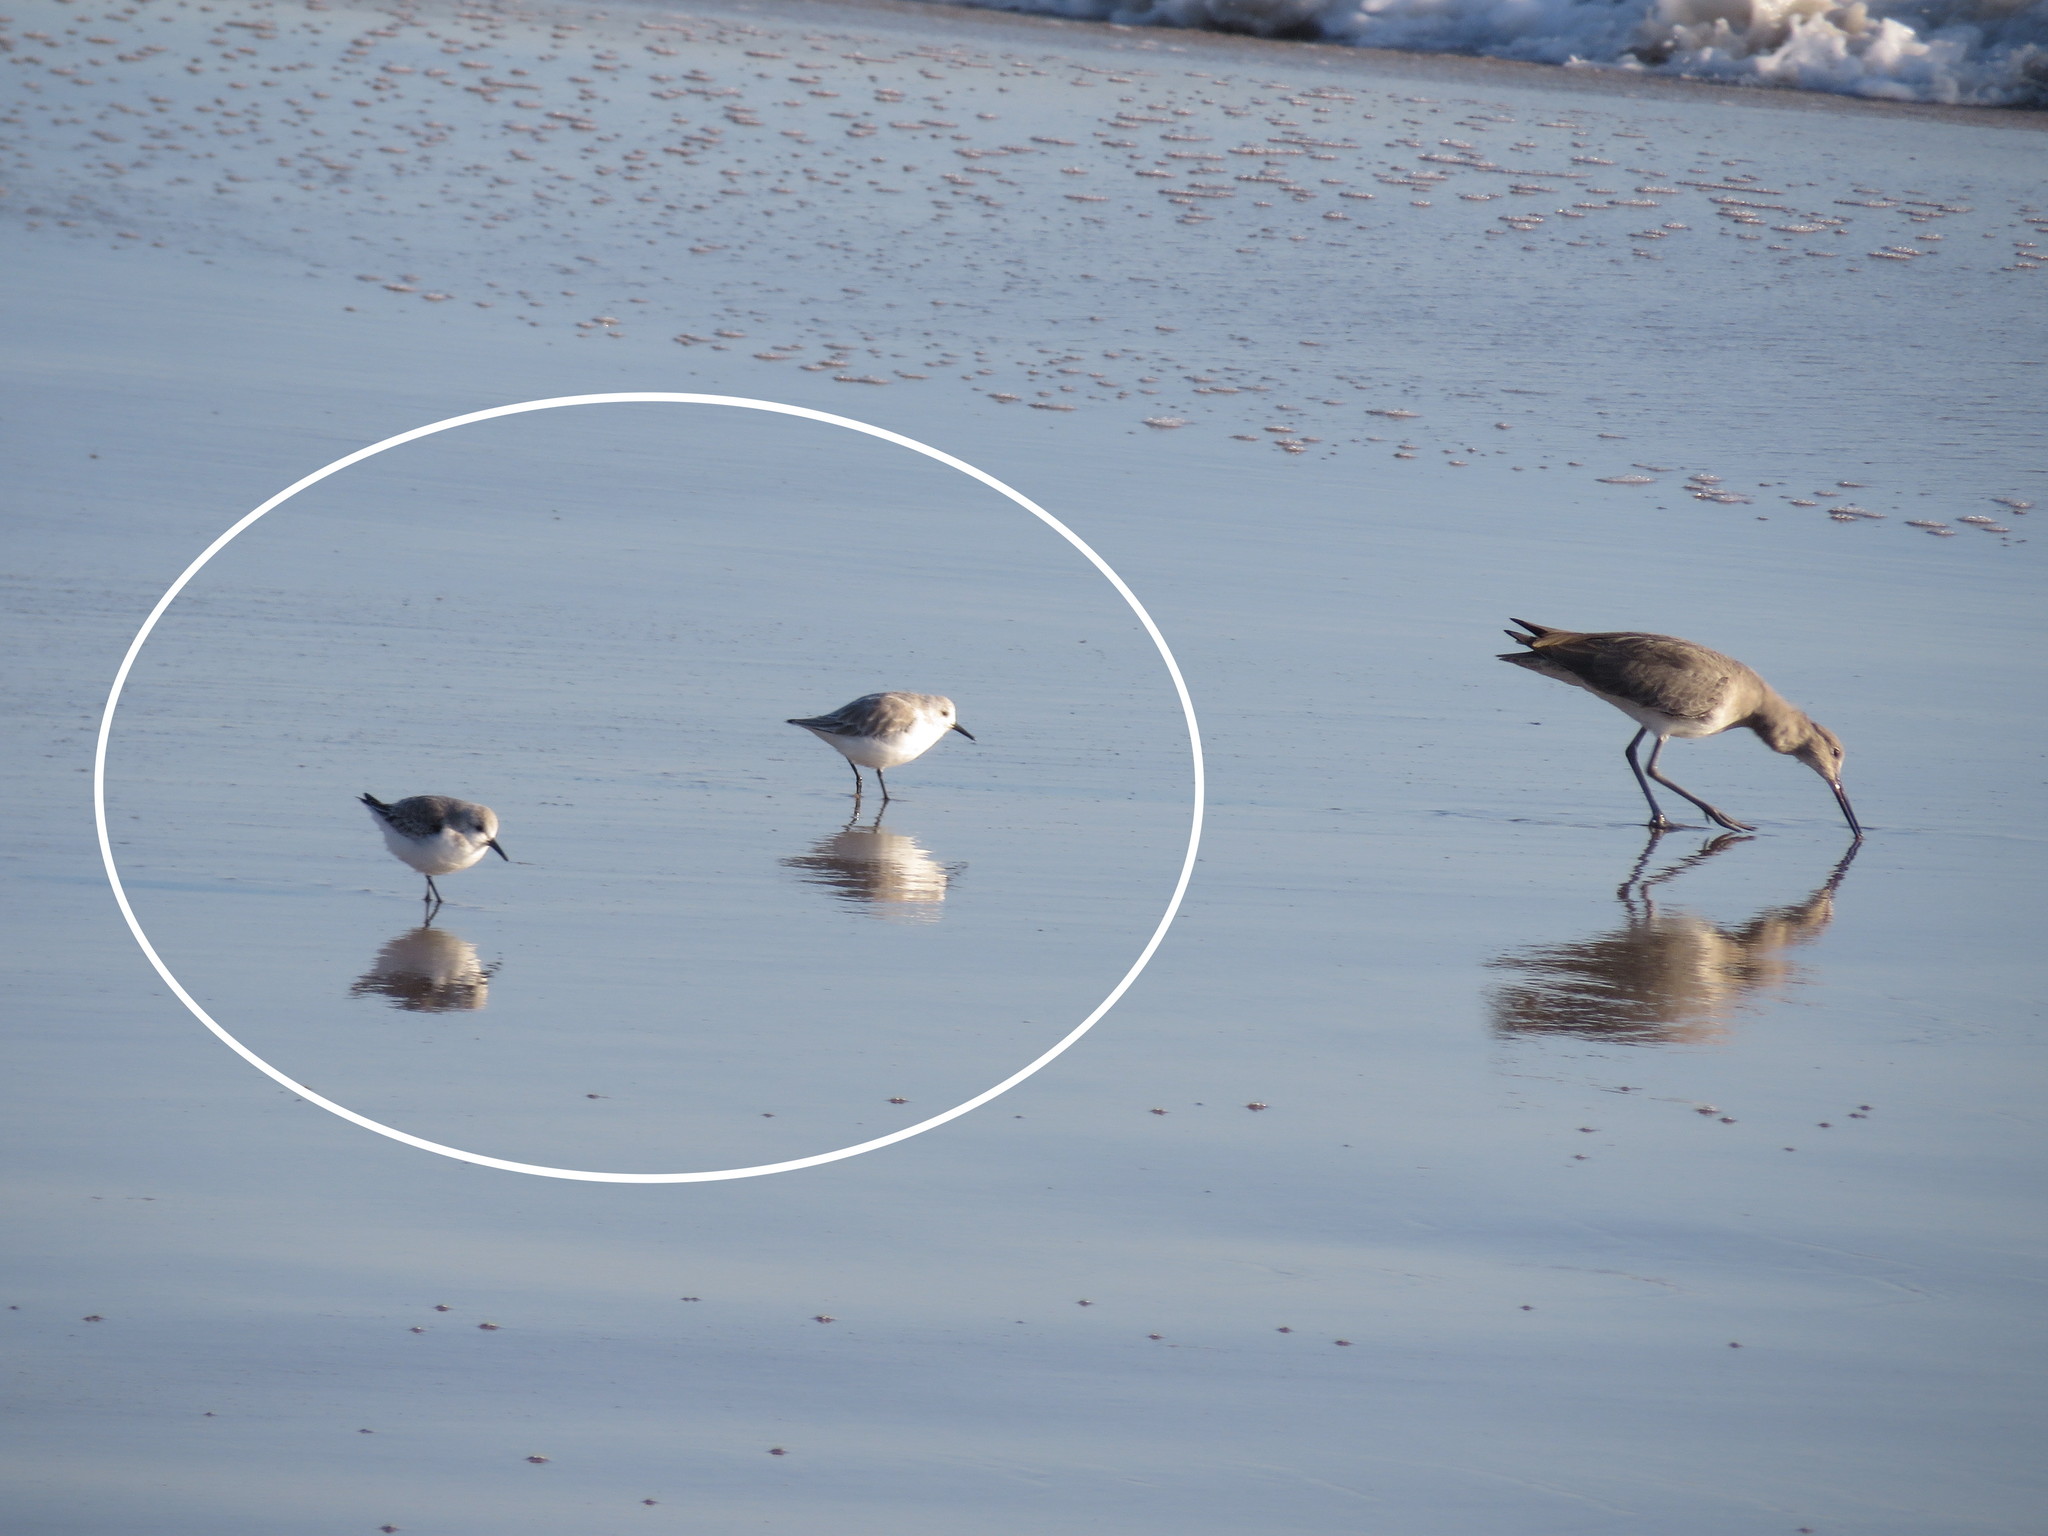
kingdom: Animalia
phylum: Chordata
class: Aves
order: Charadriiformes
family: Scolopacidae
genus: Calidris
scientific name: Calidris alba
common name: Sanderling
